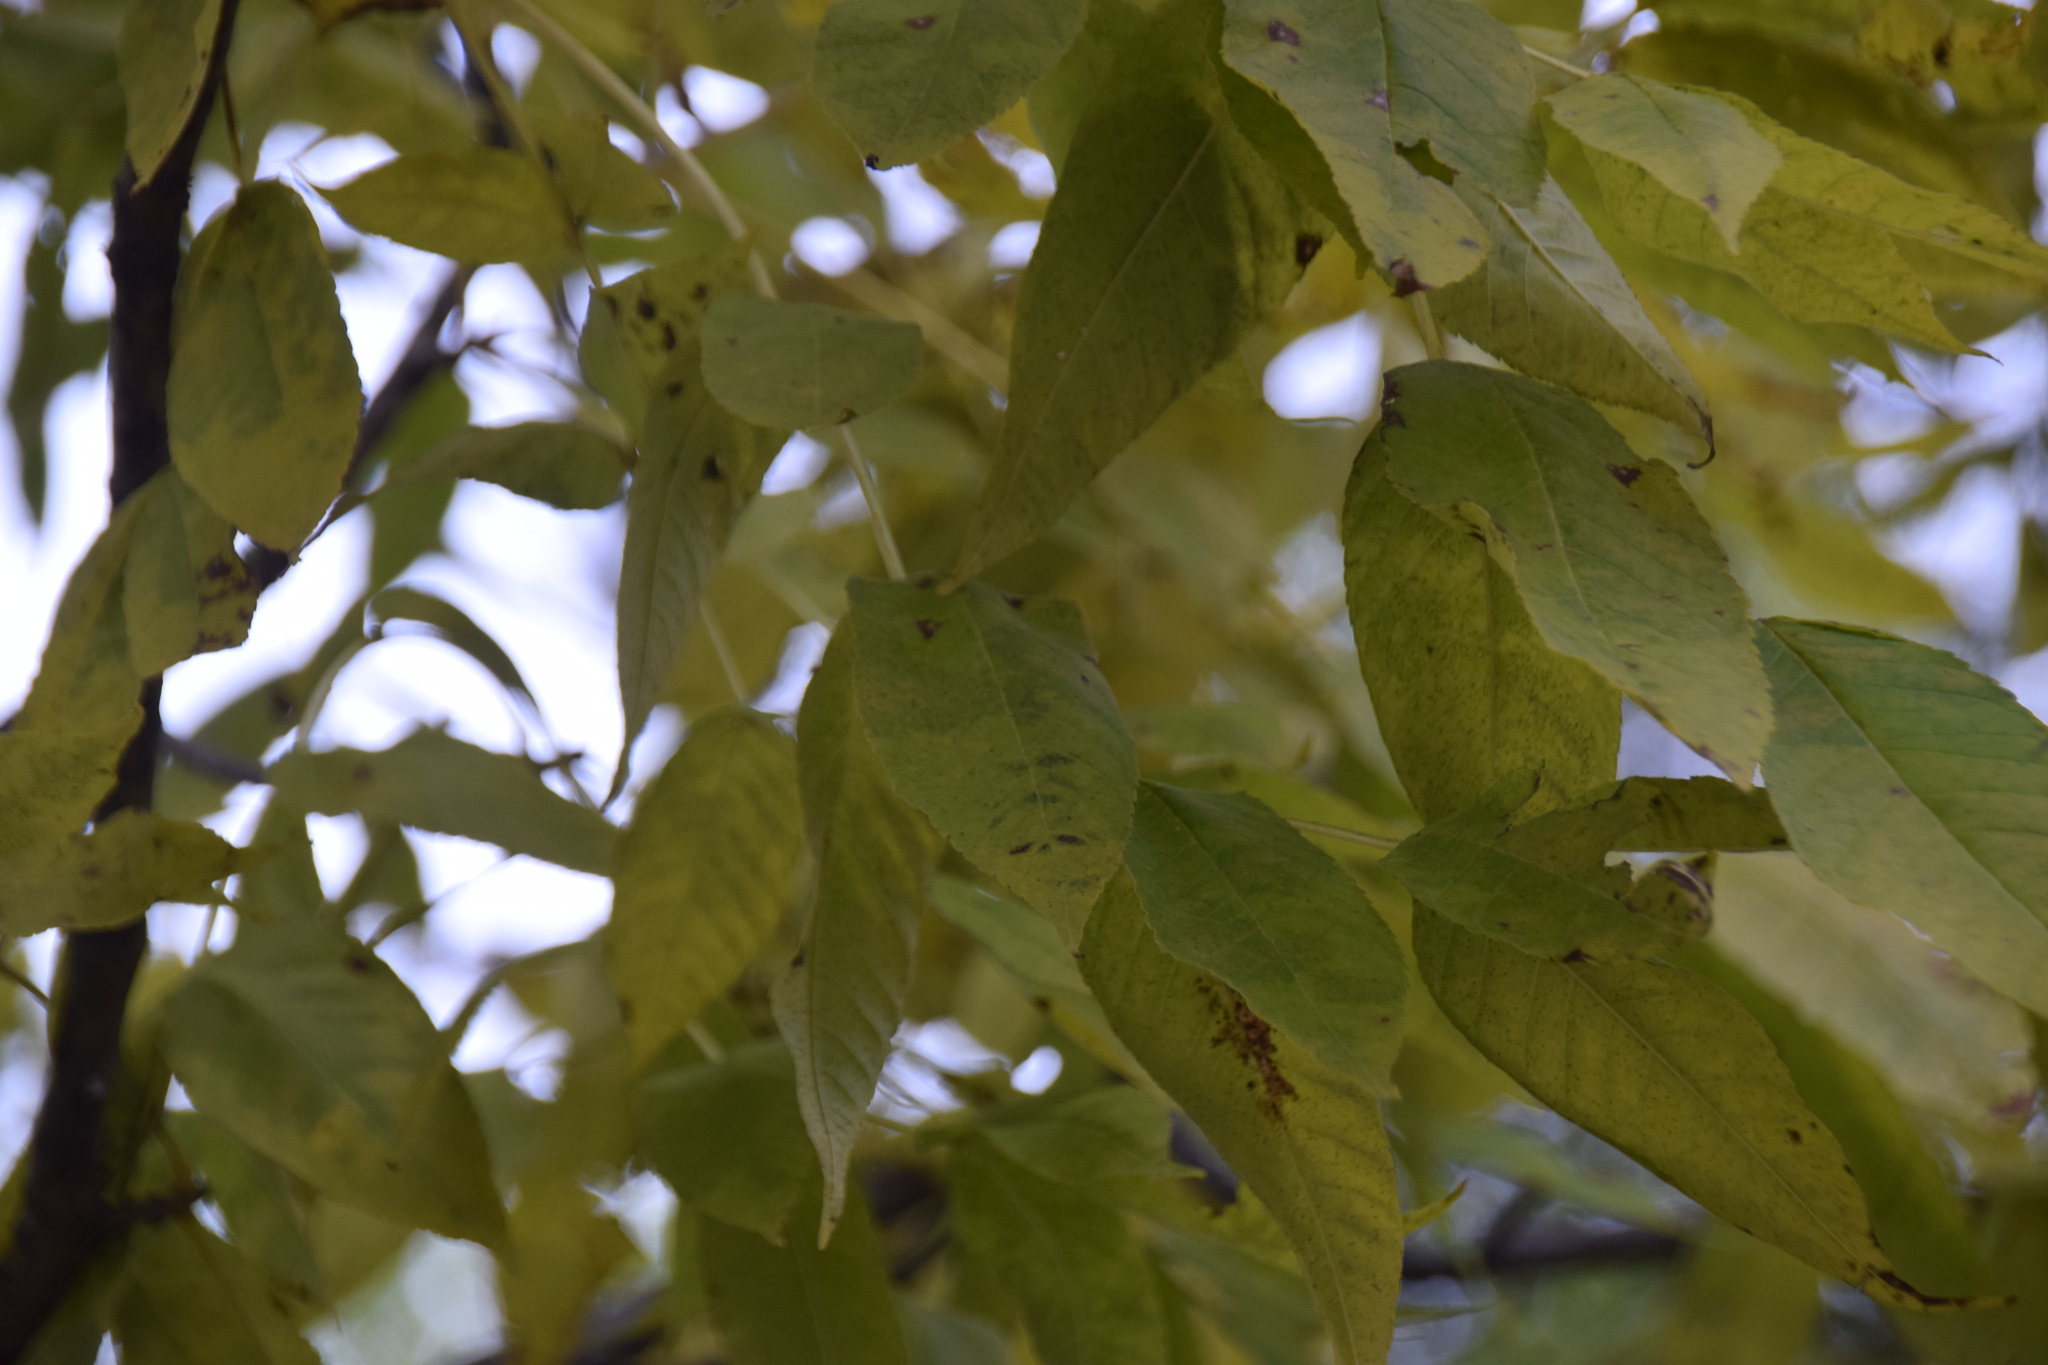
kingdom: Plantae
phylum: Tracheophyta
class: Magnoliopsida
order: Lamiales
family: Oleaceae
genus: Fraxinus
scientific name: Fraxinus nigra
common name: Black ash
